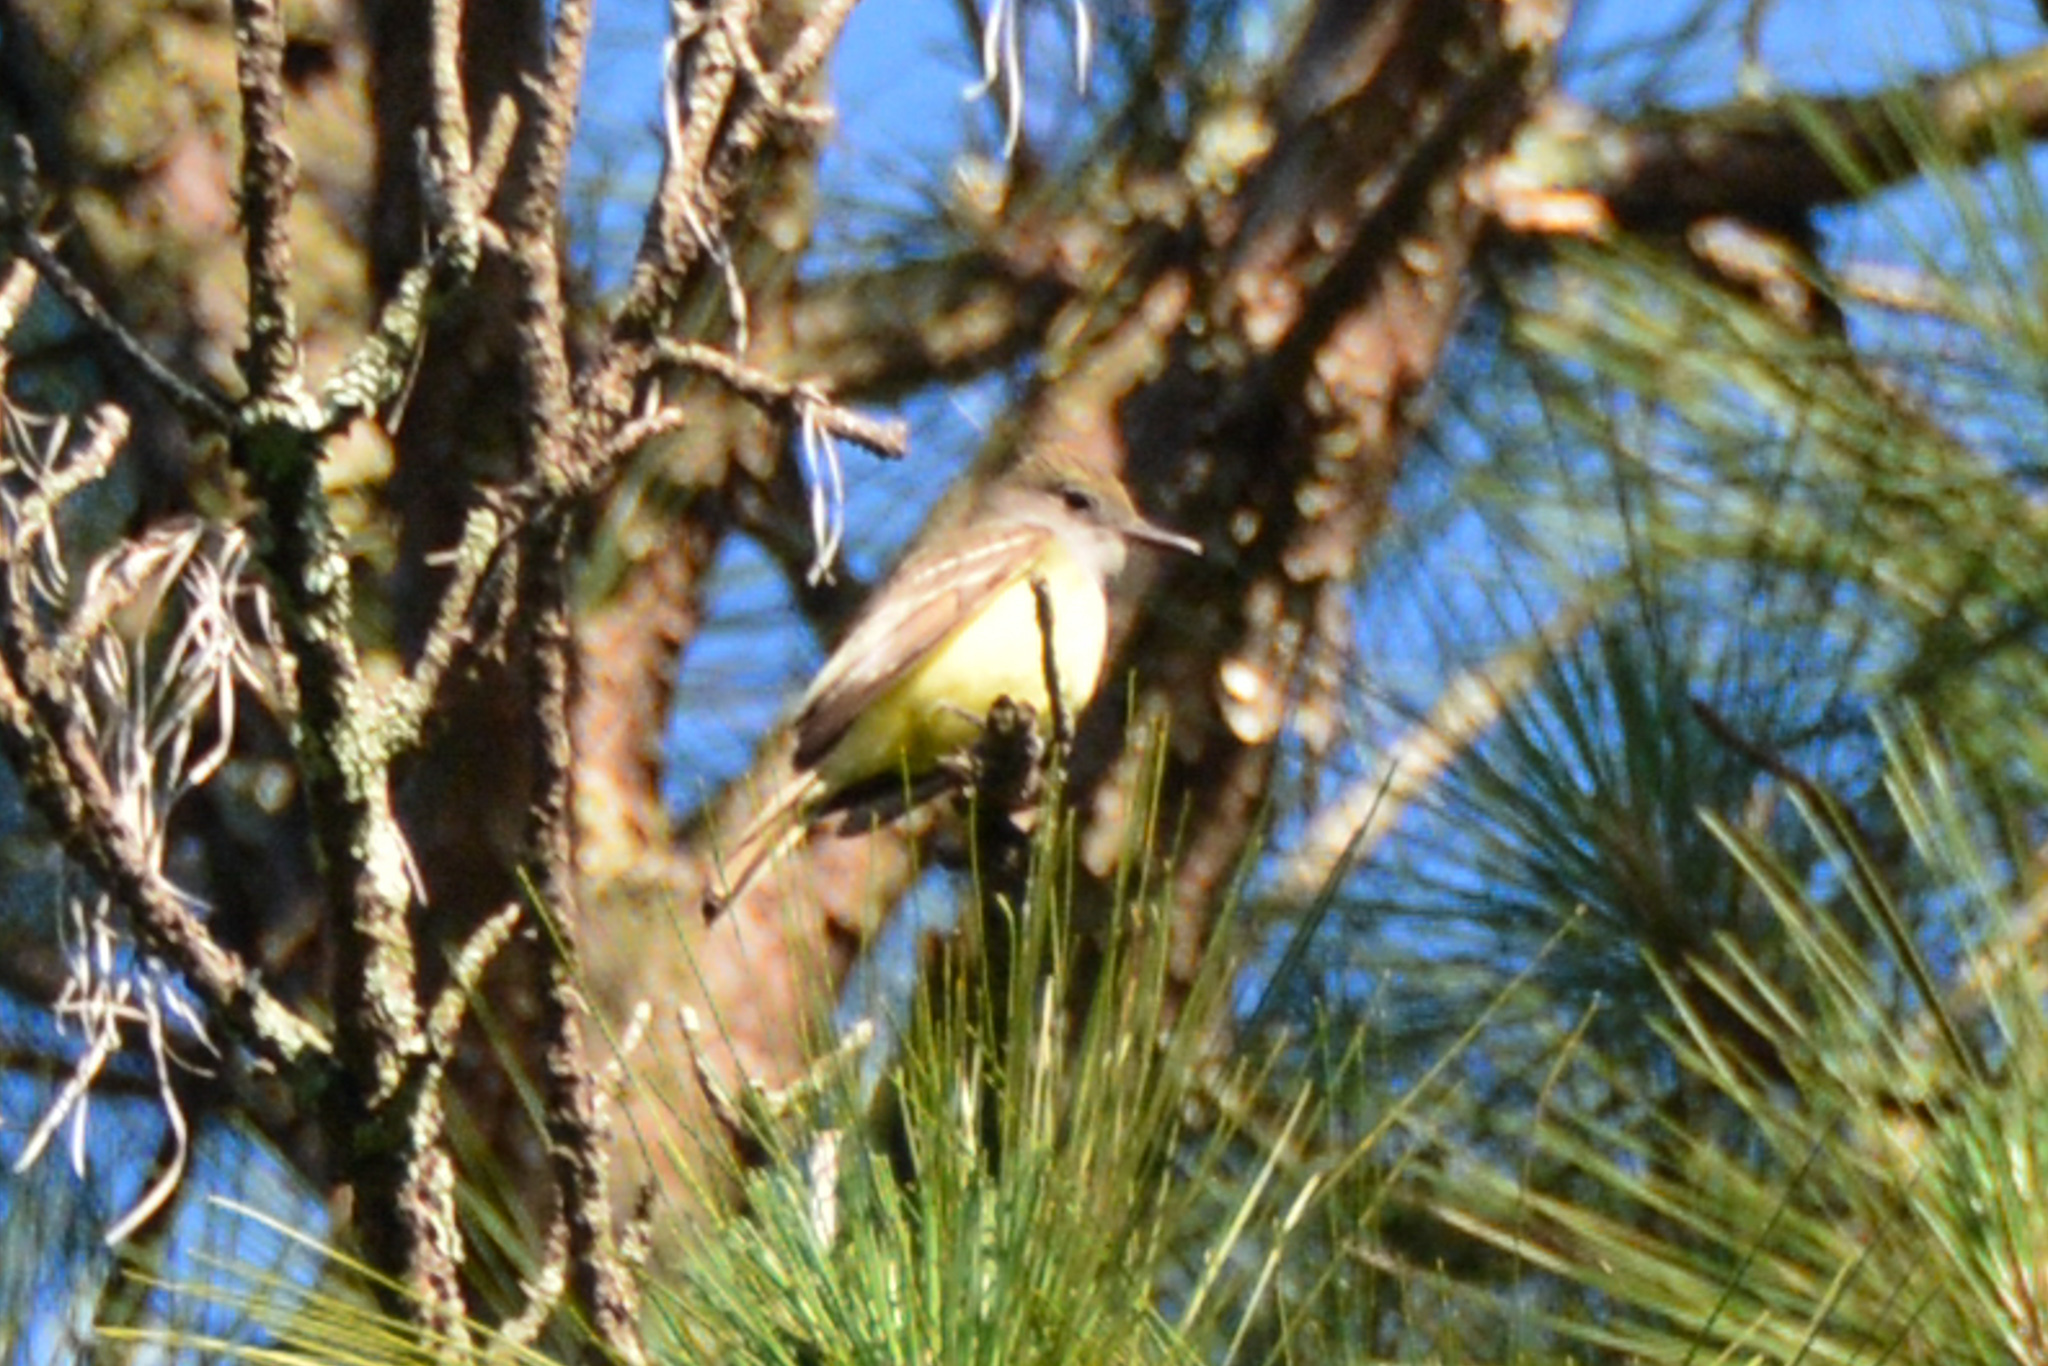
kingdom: Animalia
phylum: Chordata
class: Aves
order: Passeriformes
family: Tyrannidae
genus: Myiarchus
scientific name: Myiarchus crinitus
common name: Great crested flycatcher
